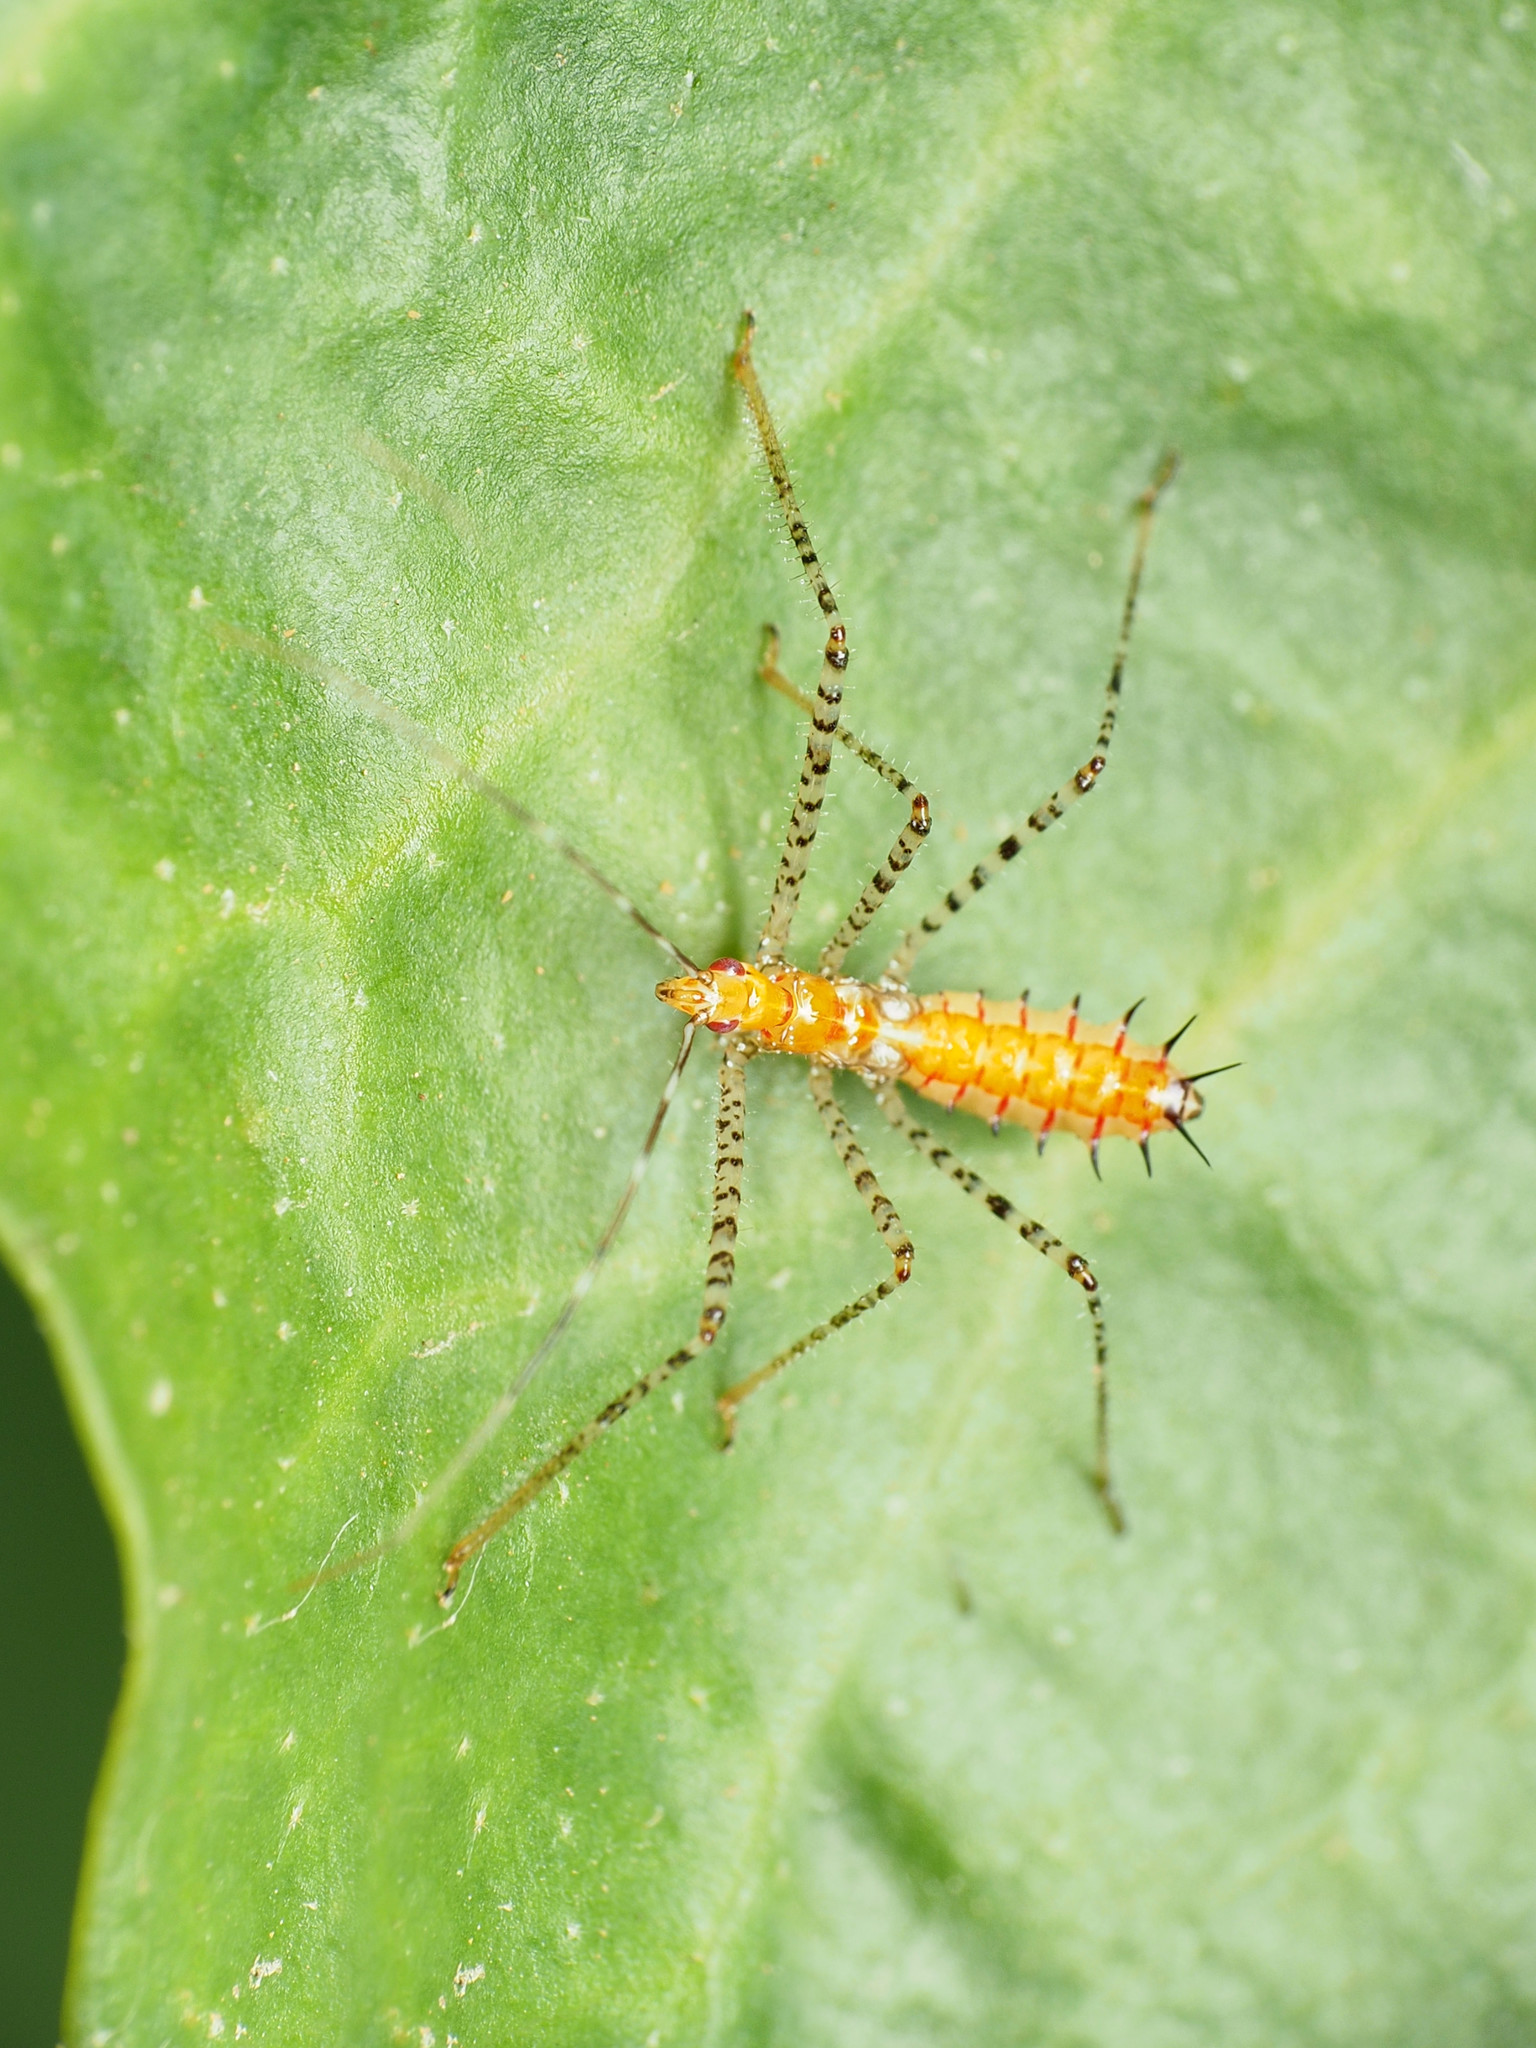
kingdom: Animalia
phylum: Arthropoda
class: Insecta
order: Hemiptera
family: Reduviidae
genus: Zelus
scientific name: Zelus renardii
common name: Assassin bug
